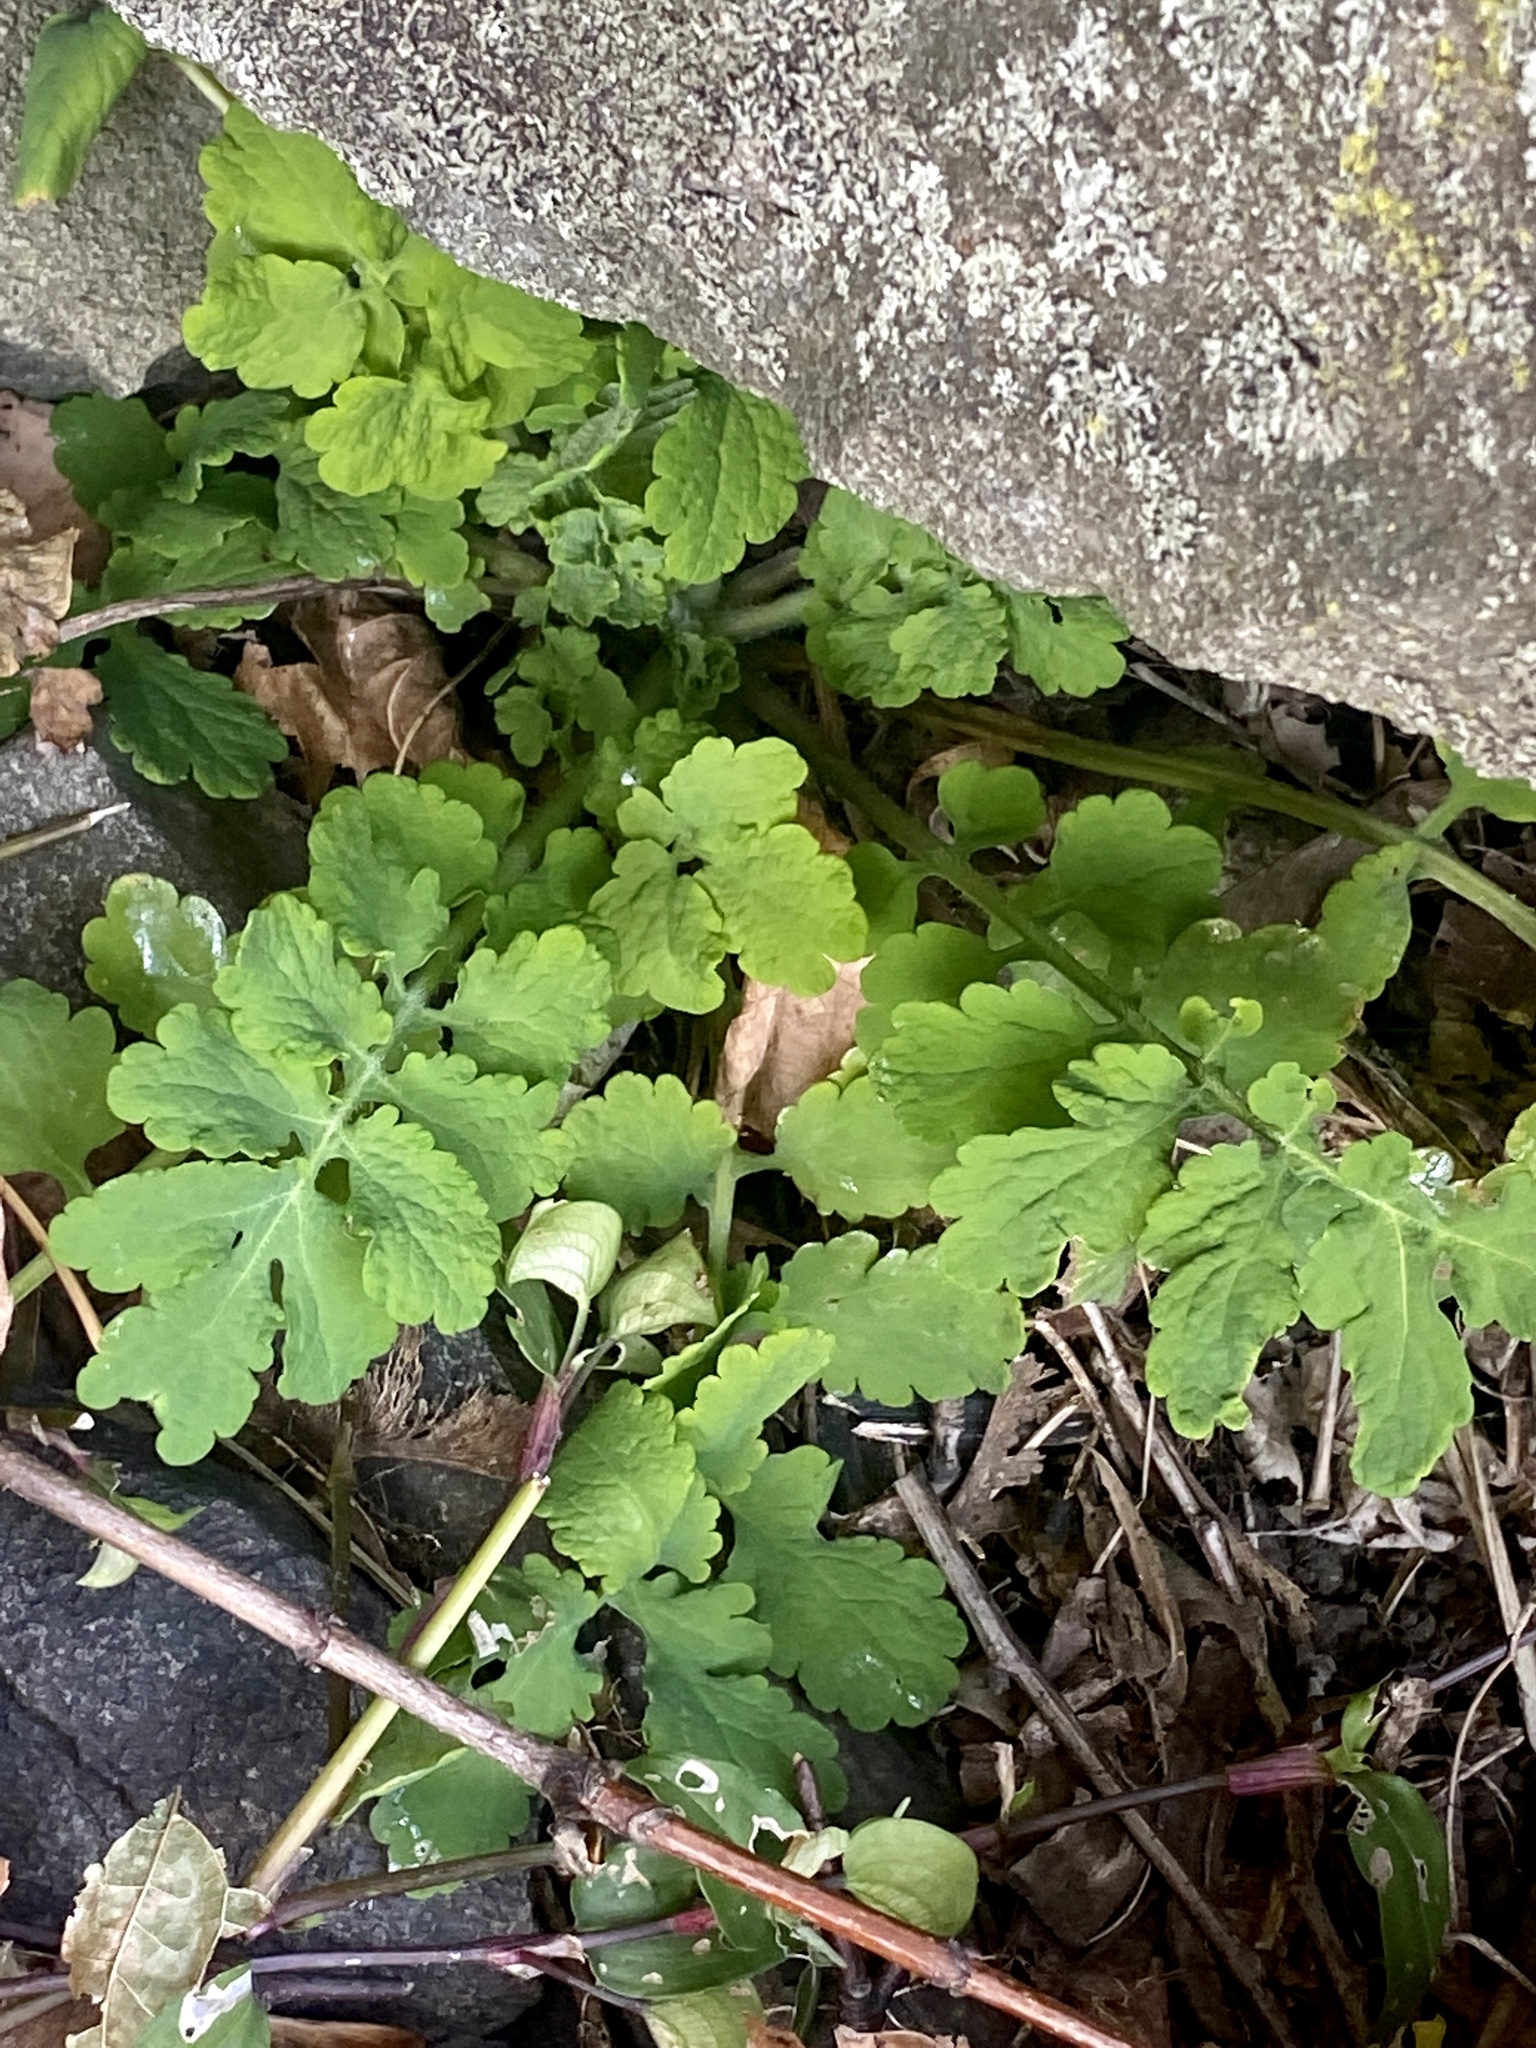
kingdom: Plantae
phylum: Tracheophyta
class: Magnoliopsida
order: Ranunculales
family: Papaveraceae
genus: Chelidonium
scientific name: Chelidonium majus
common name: Greater celandine
